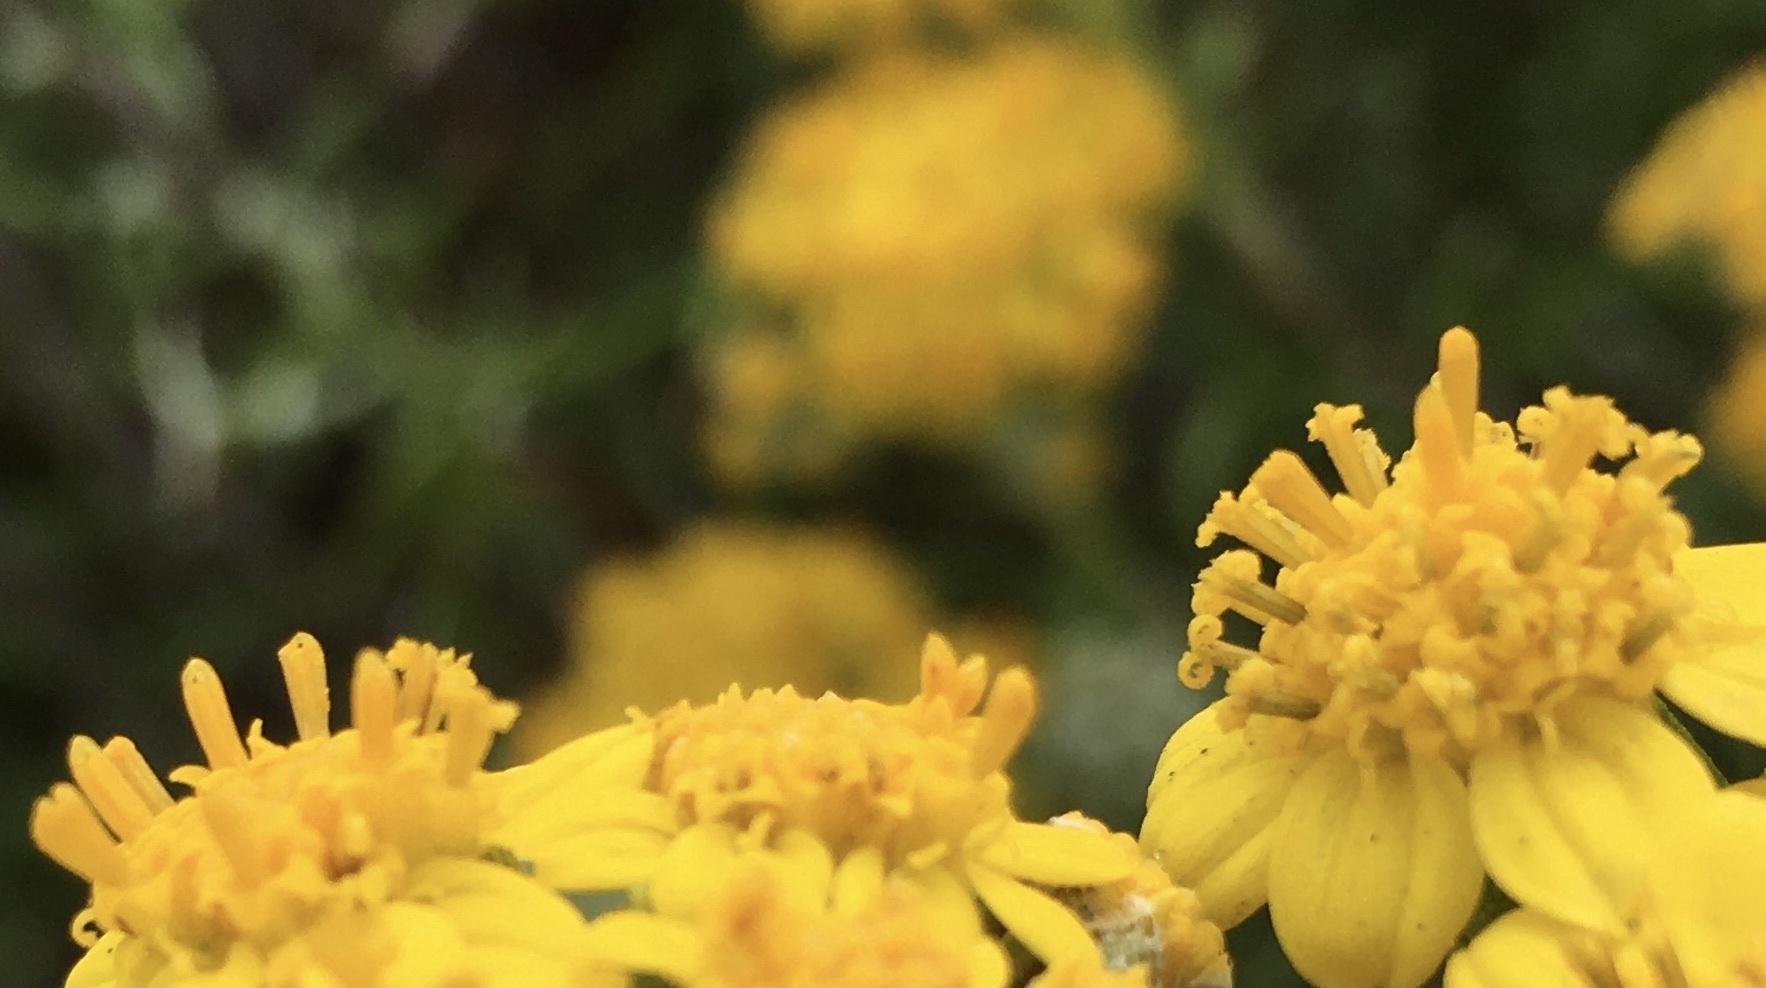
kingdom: Plantae
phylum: Tracheophyta
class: Magnoliopsida
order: Asterales
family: Asteraceae
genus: Eriophyllum
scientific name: Eriophyllum staechadifolium
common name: Lizardtail
